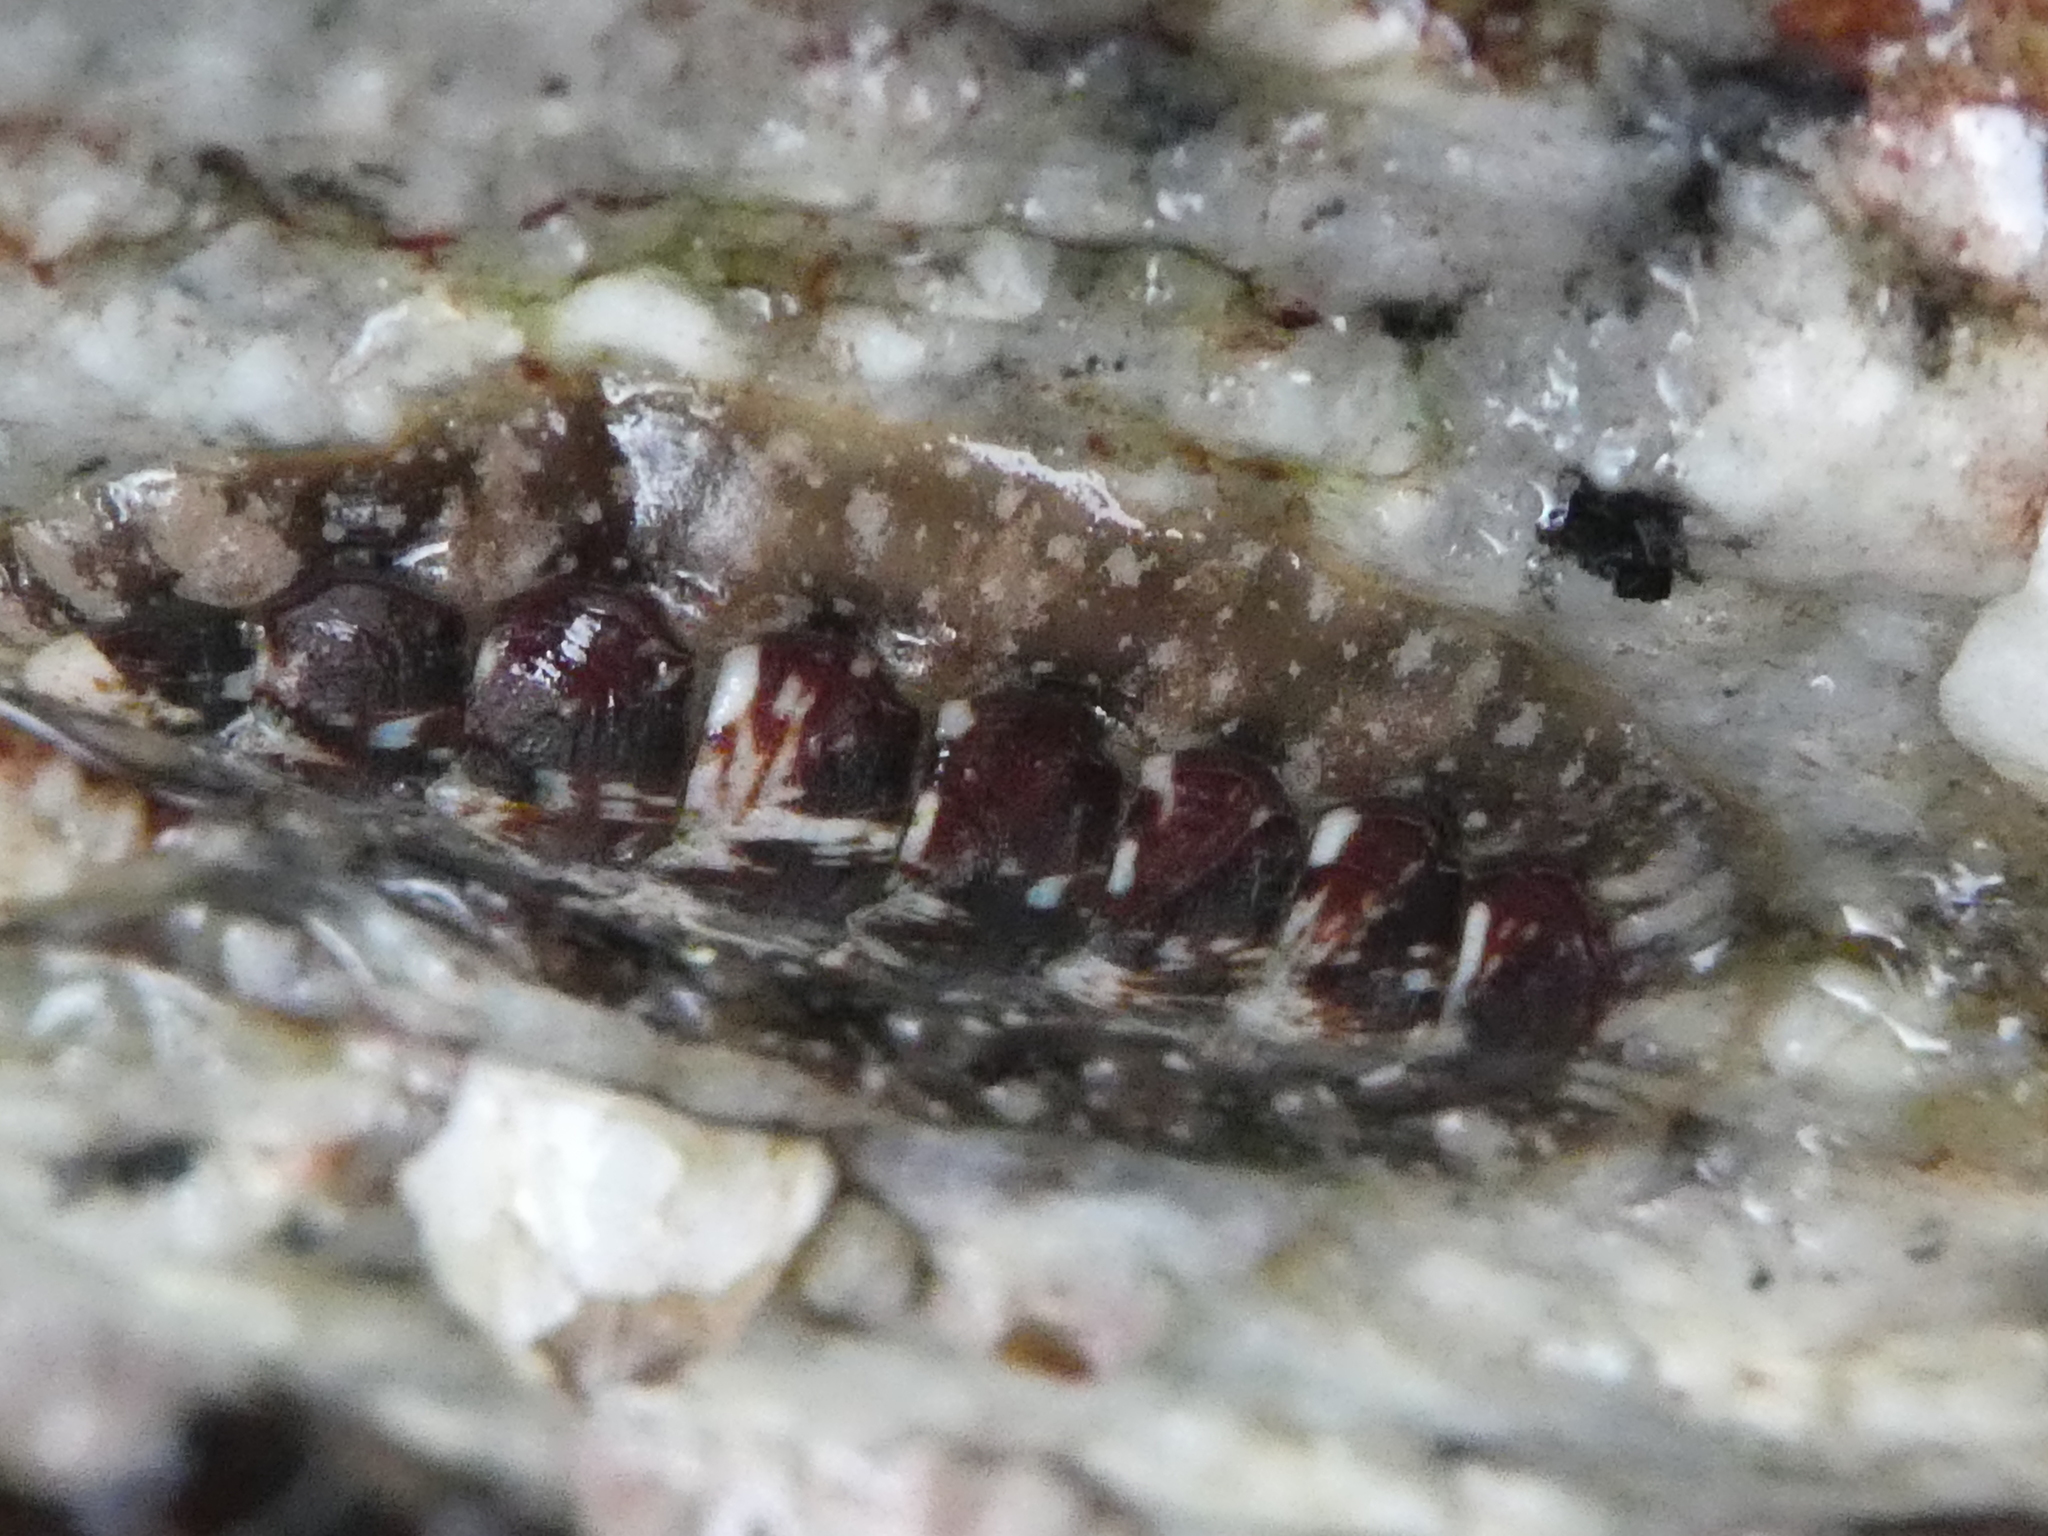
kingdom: Animalia
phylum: Mollusca
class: Polyplacophora
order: Chitonida
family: Tonicellidae
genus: Cyanoplax
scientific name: Cyanoplax dentiens
